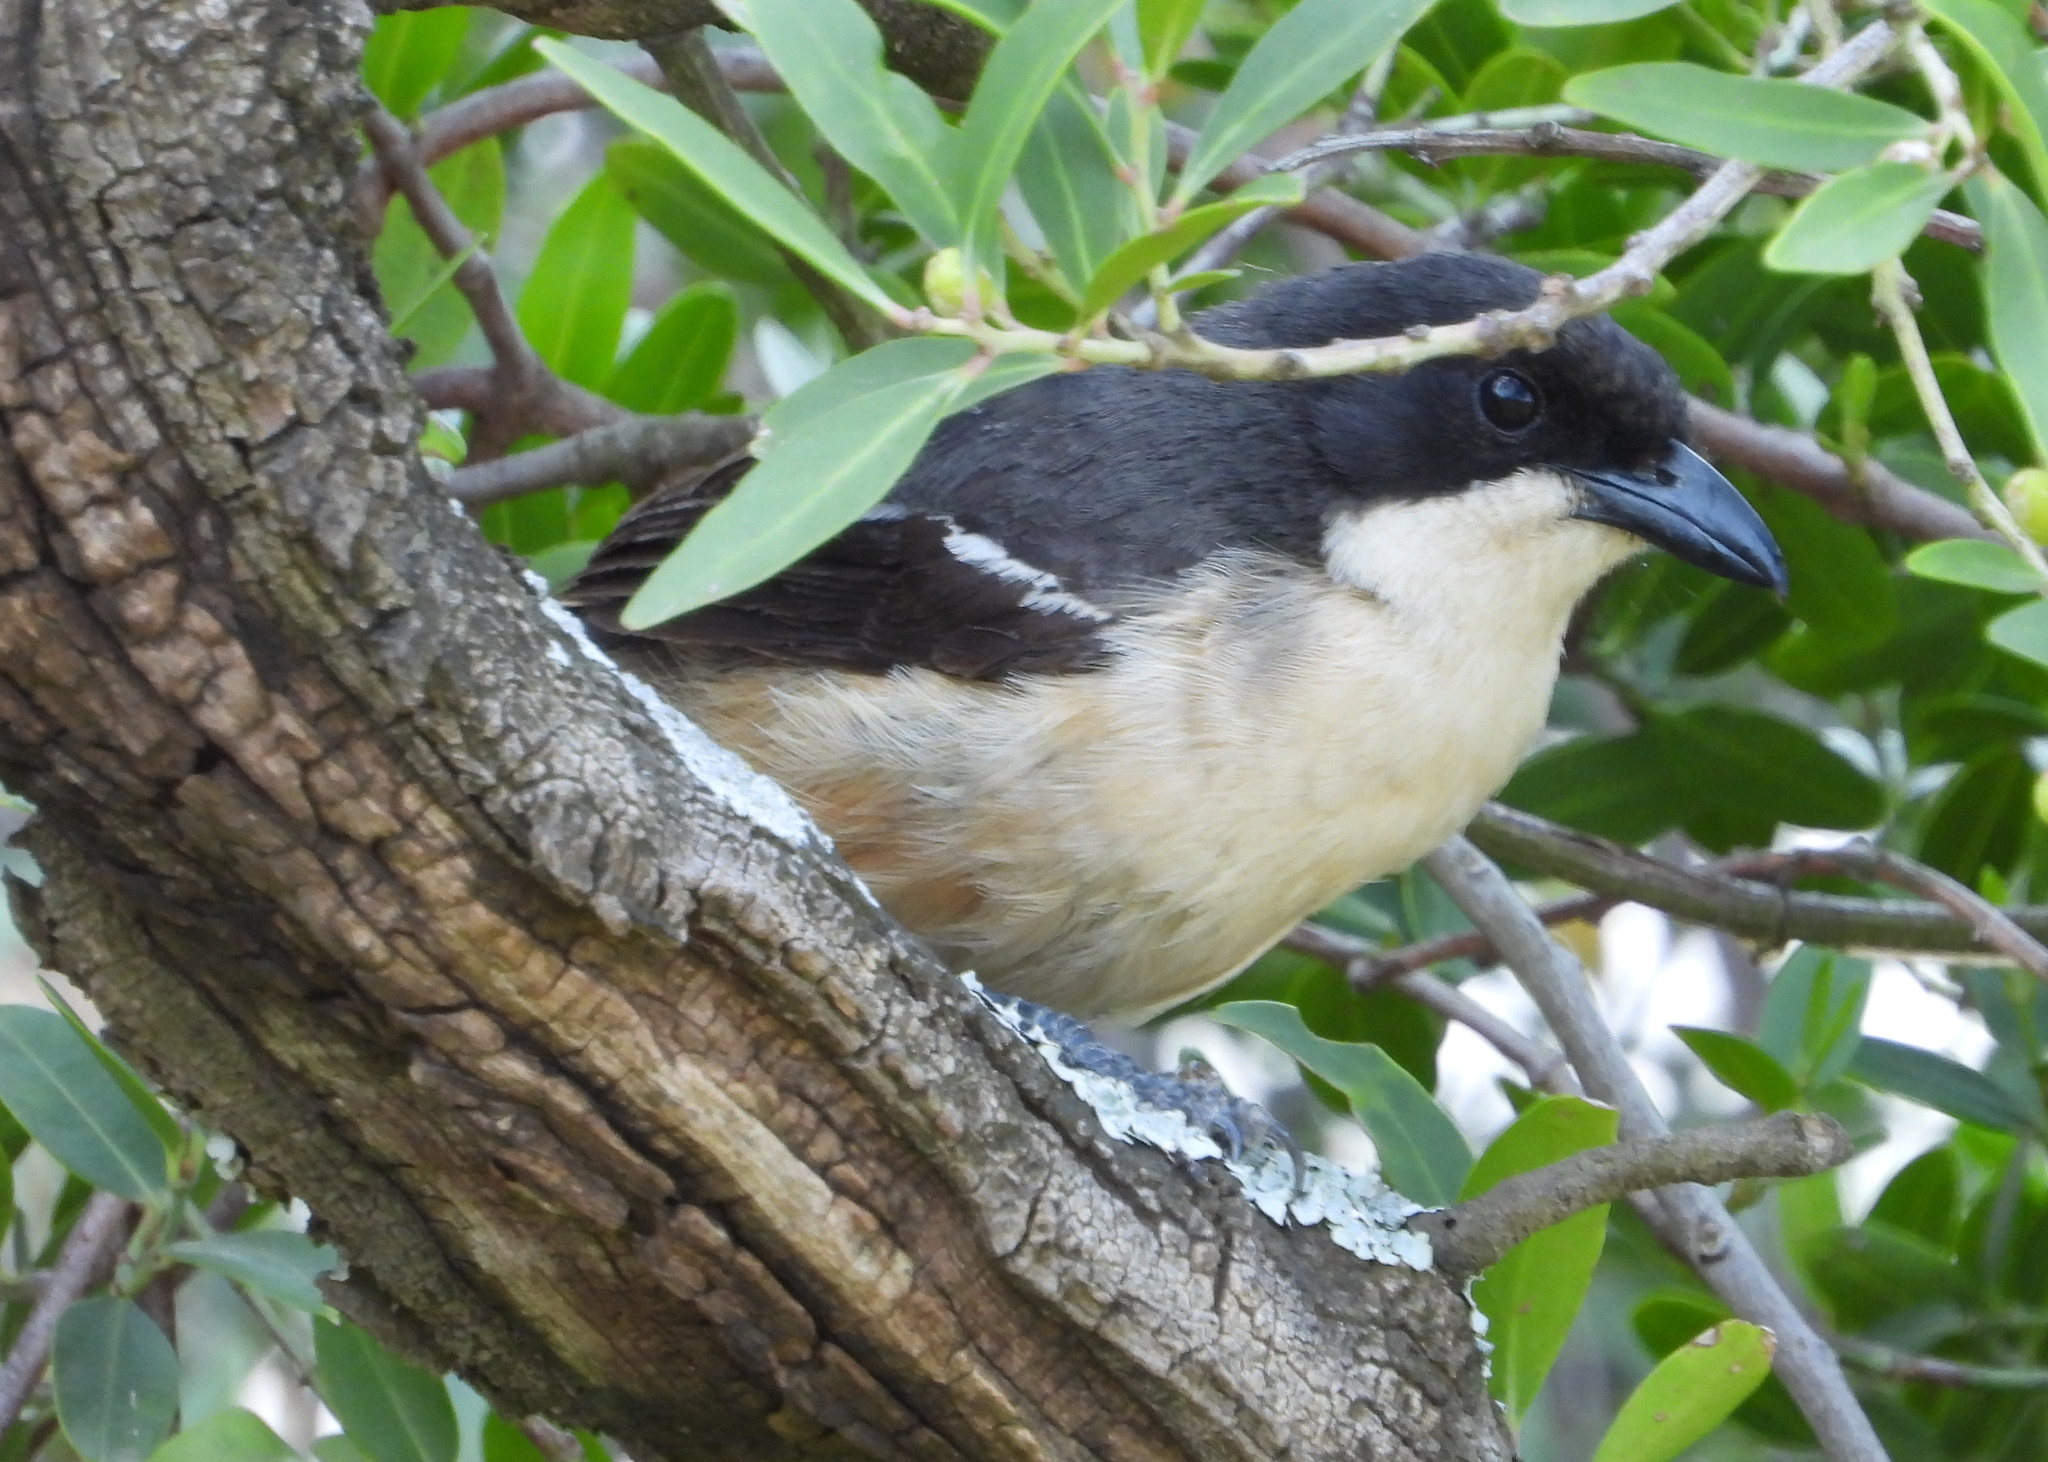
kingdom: Animalia
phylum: Chordata
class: Aves
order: Passeriformes
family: Malaconotidae
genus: Laniarius
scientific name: Laniarius ferrugineus
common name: Southern boubou
